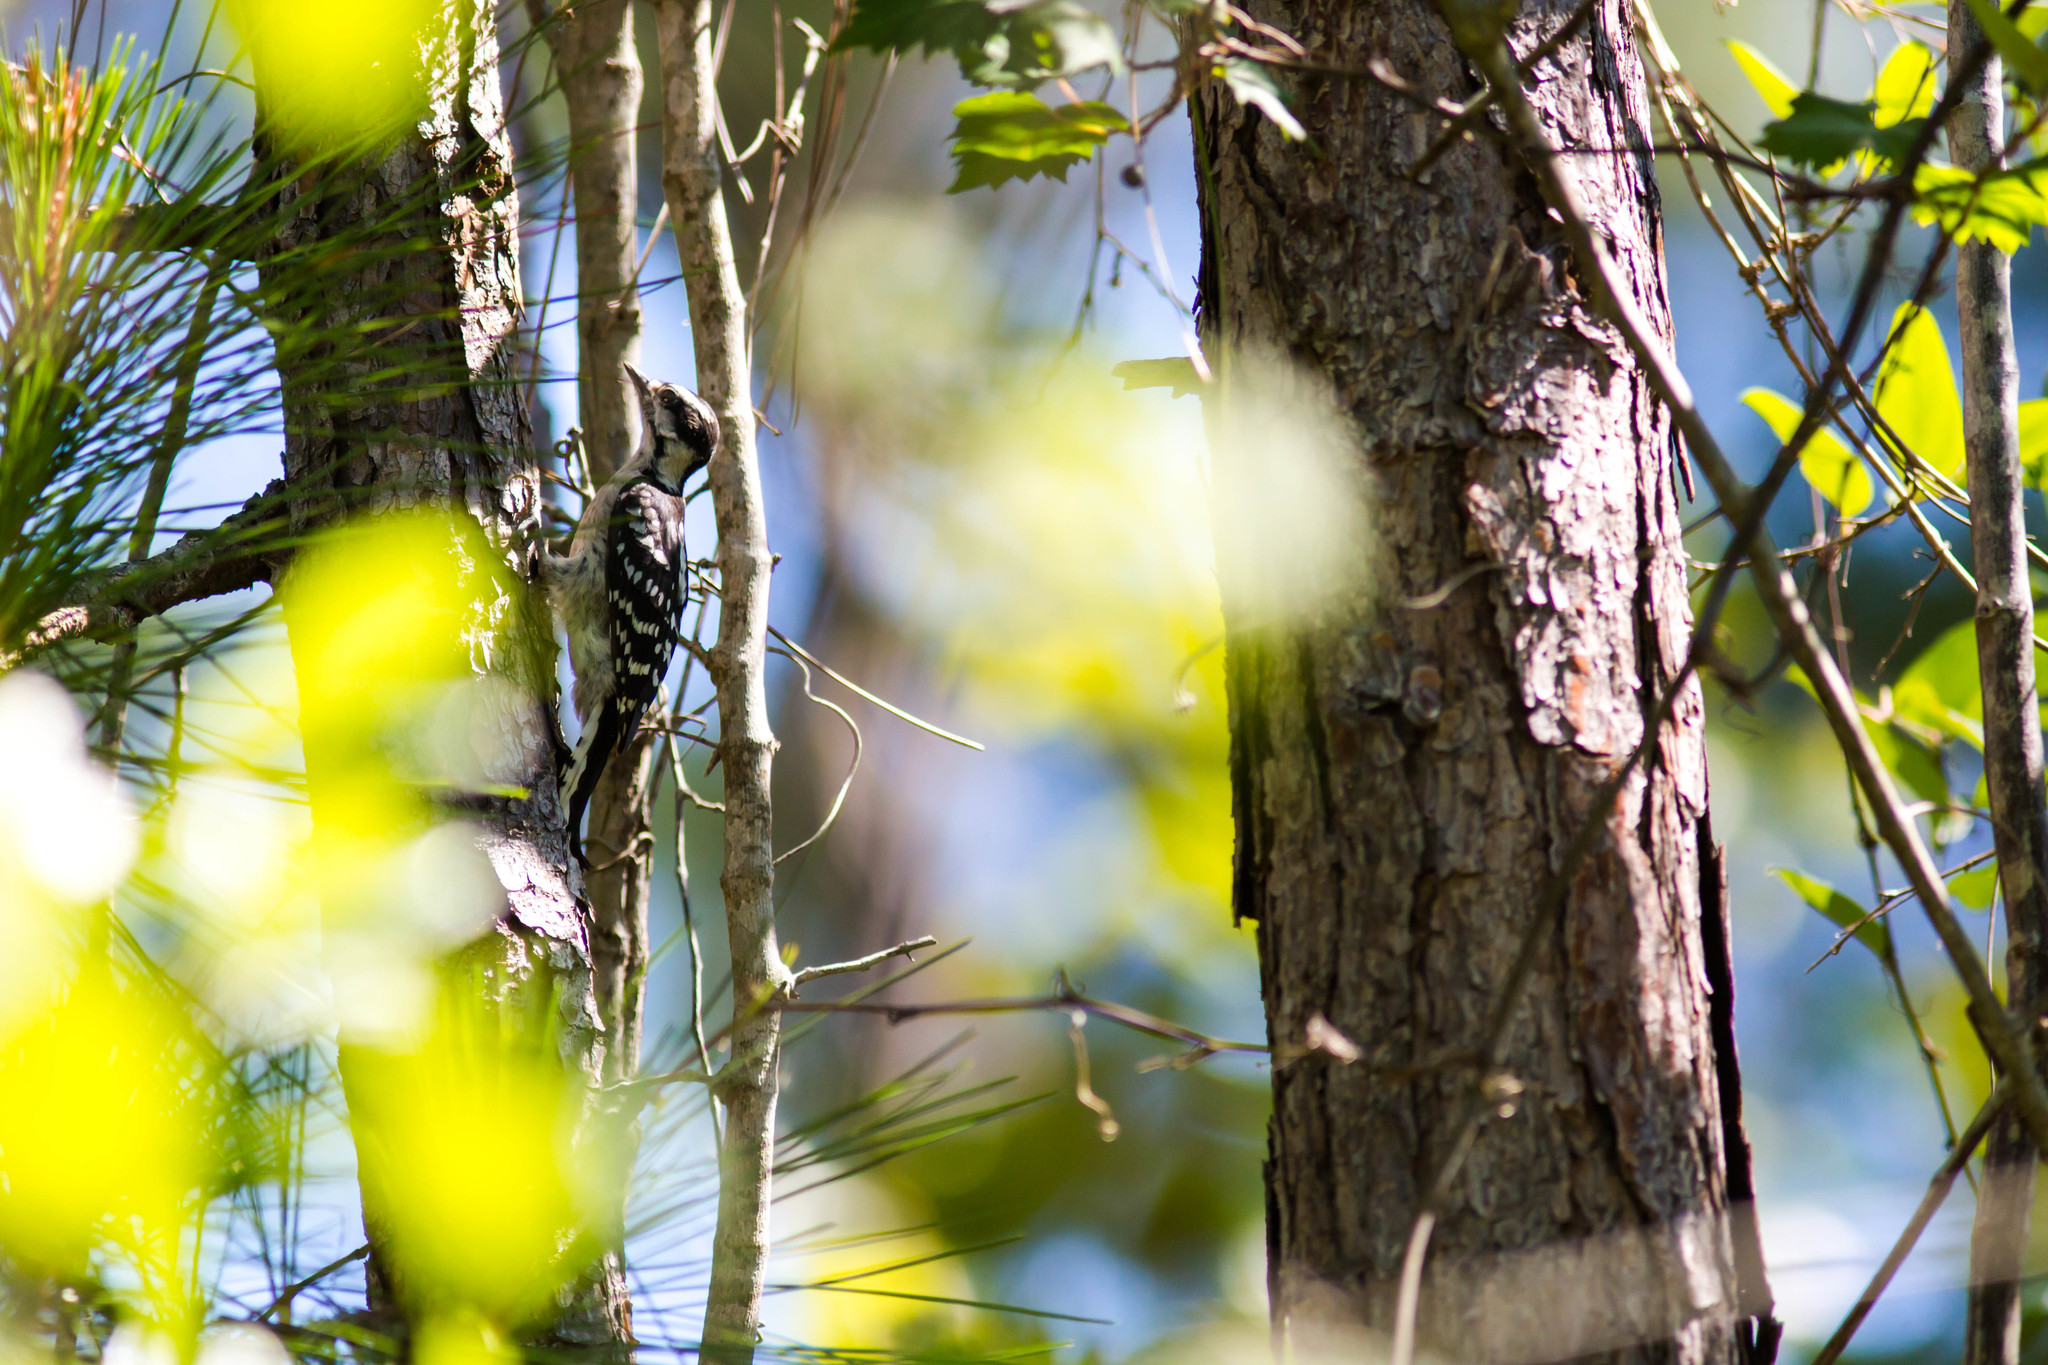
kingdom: Animalia
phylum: Chordata
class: Aves
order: Piciformes
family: Picidae
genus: Dryobates
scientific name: Dryobates pubescens
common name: Downy woodpecker
